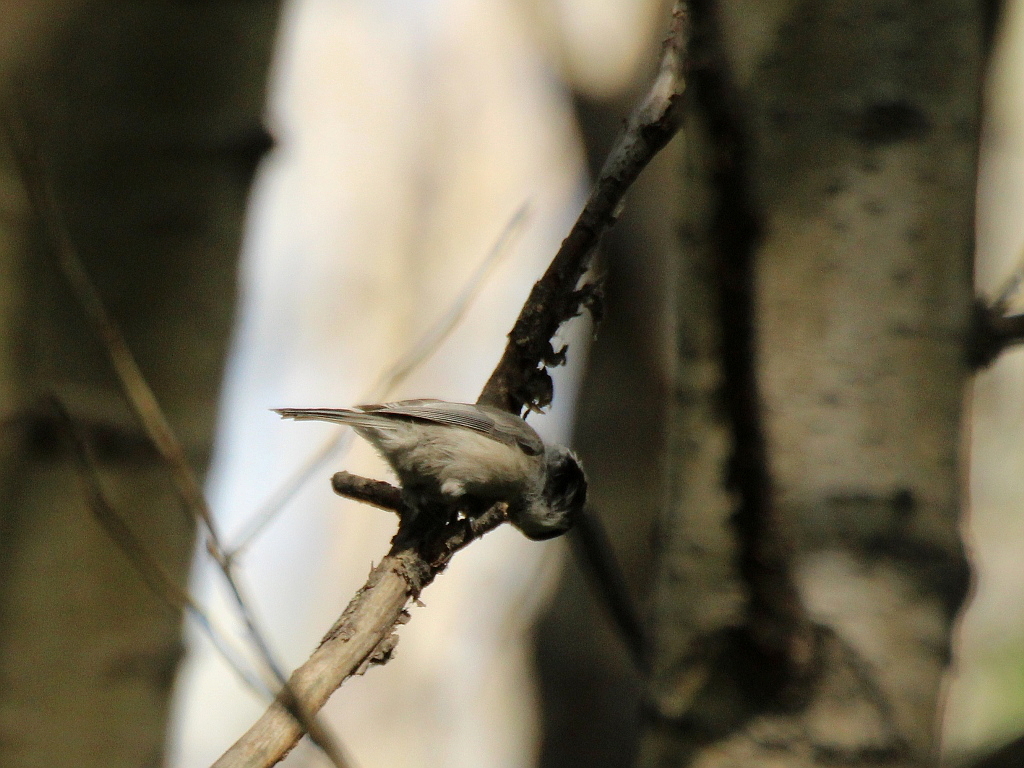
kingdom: Animalia
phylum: Chordata
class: Aves
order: Passeriformes
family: Paridae
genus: Poecile
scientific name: Poecile montanus
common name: Willow tit
